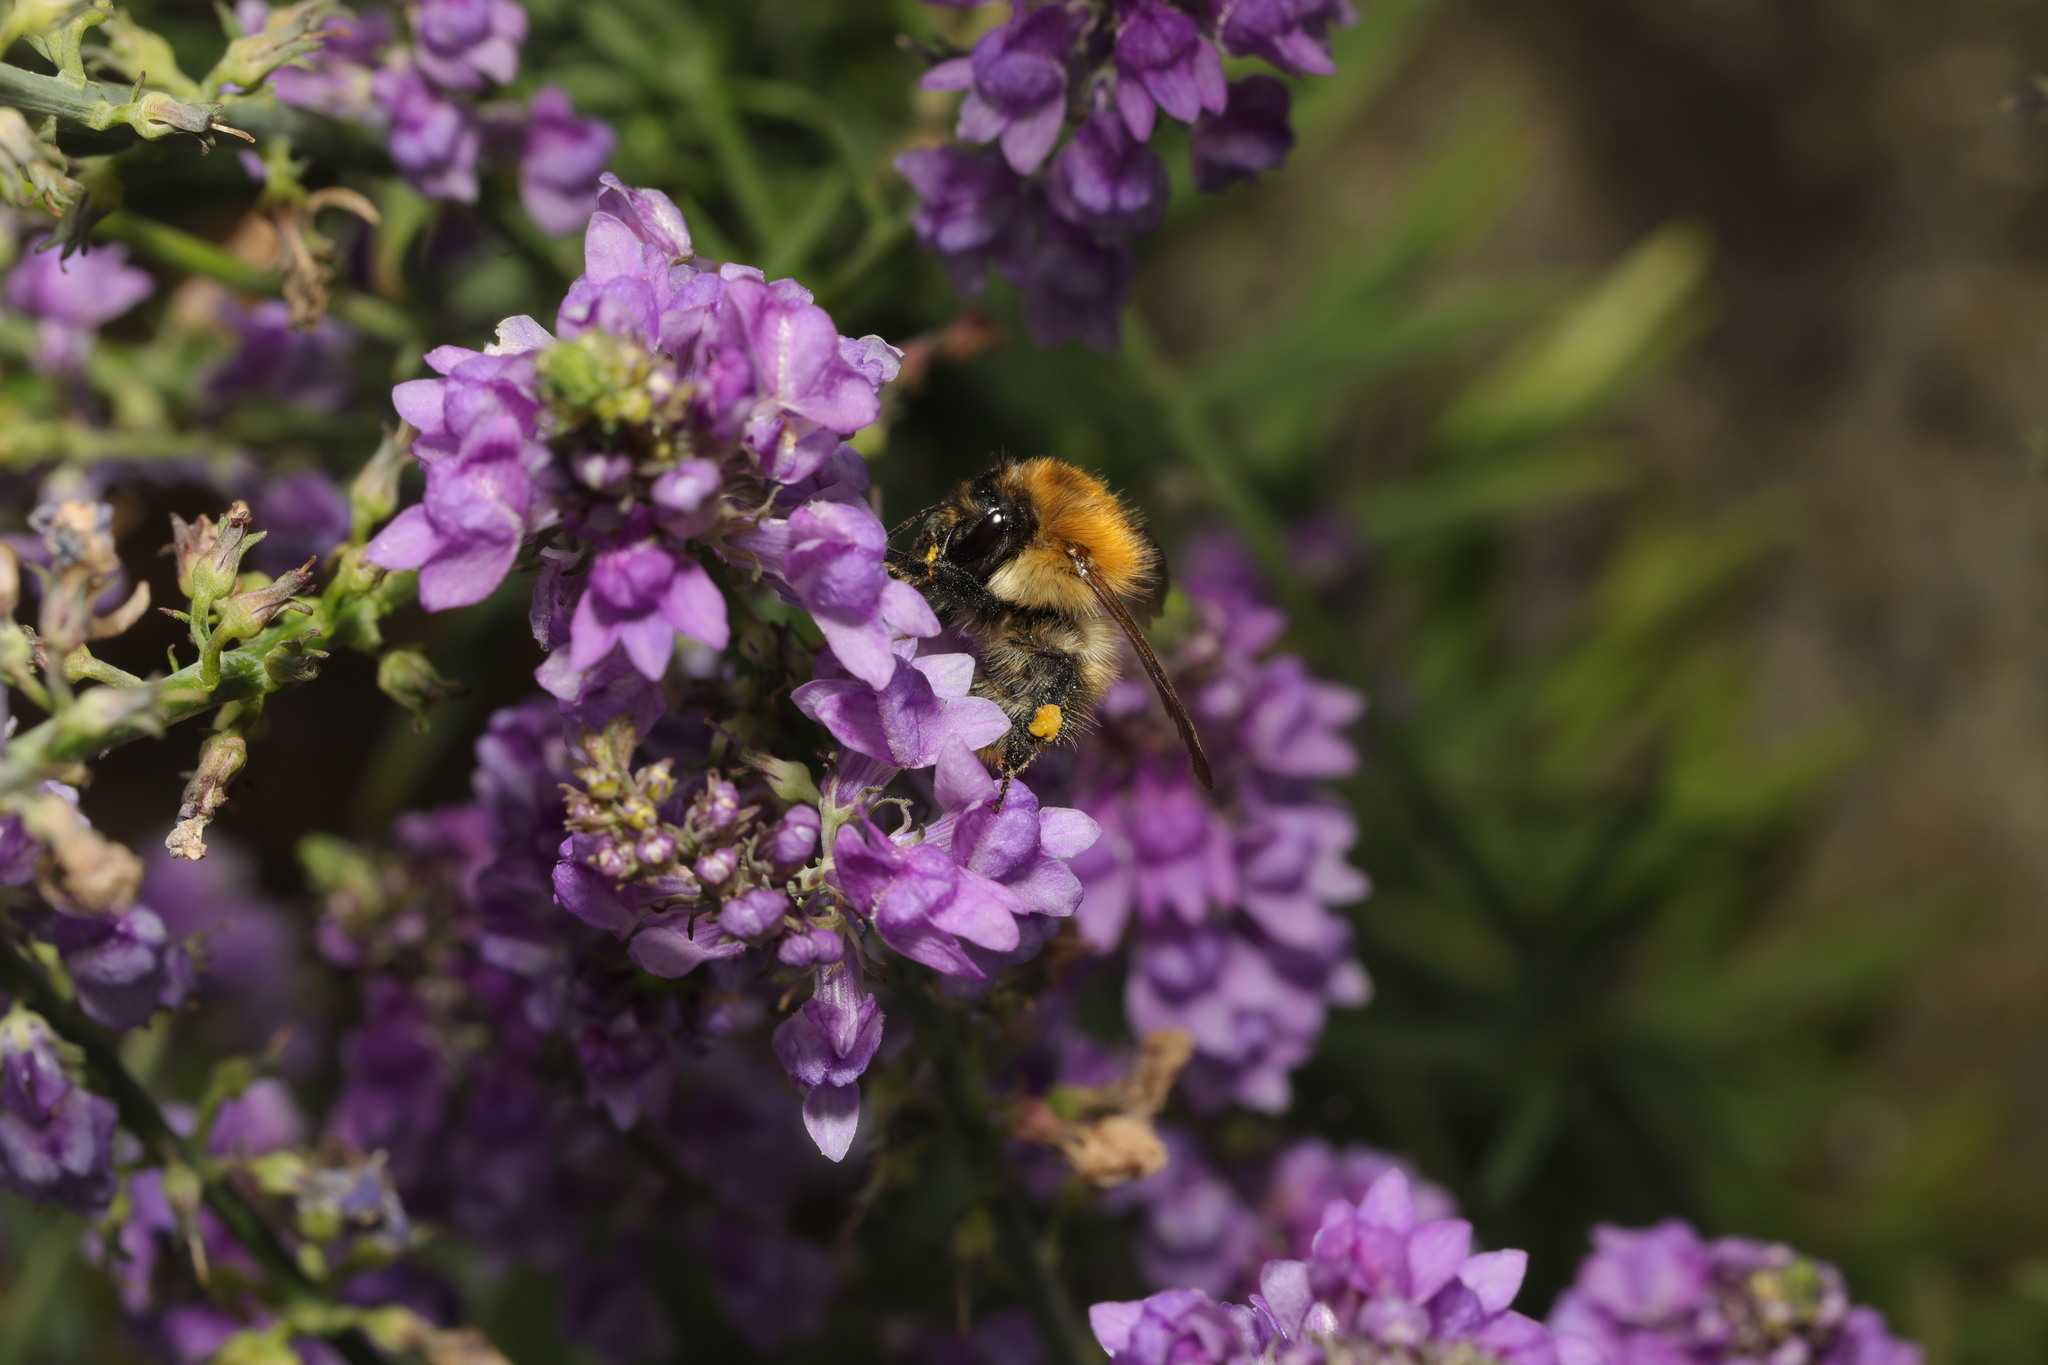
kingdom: Animalia
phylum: Arthropoda
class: Insecta
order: Hymenoptera
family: Apidae
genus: Bombus
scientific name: Bombus pascuorum
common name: Common carder bee
